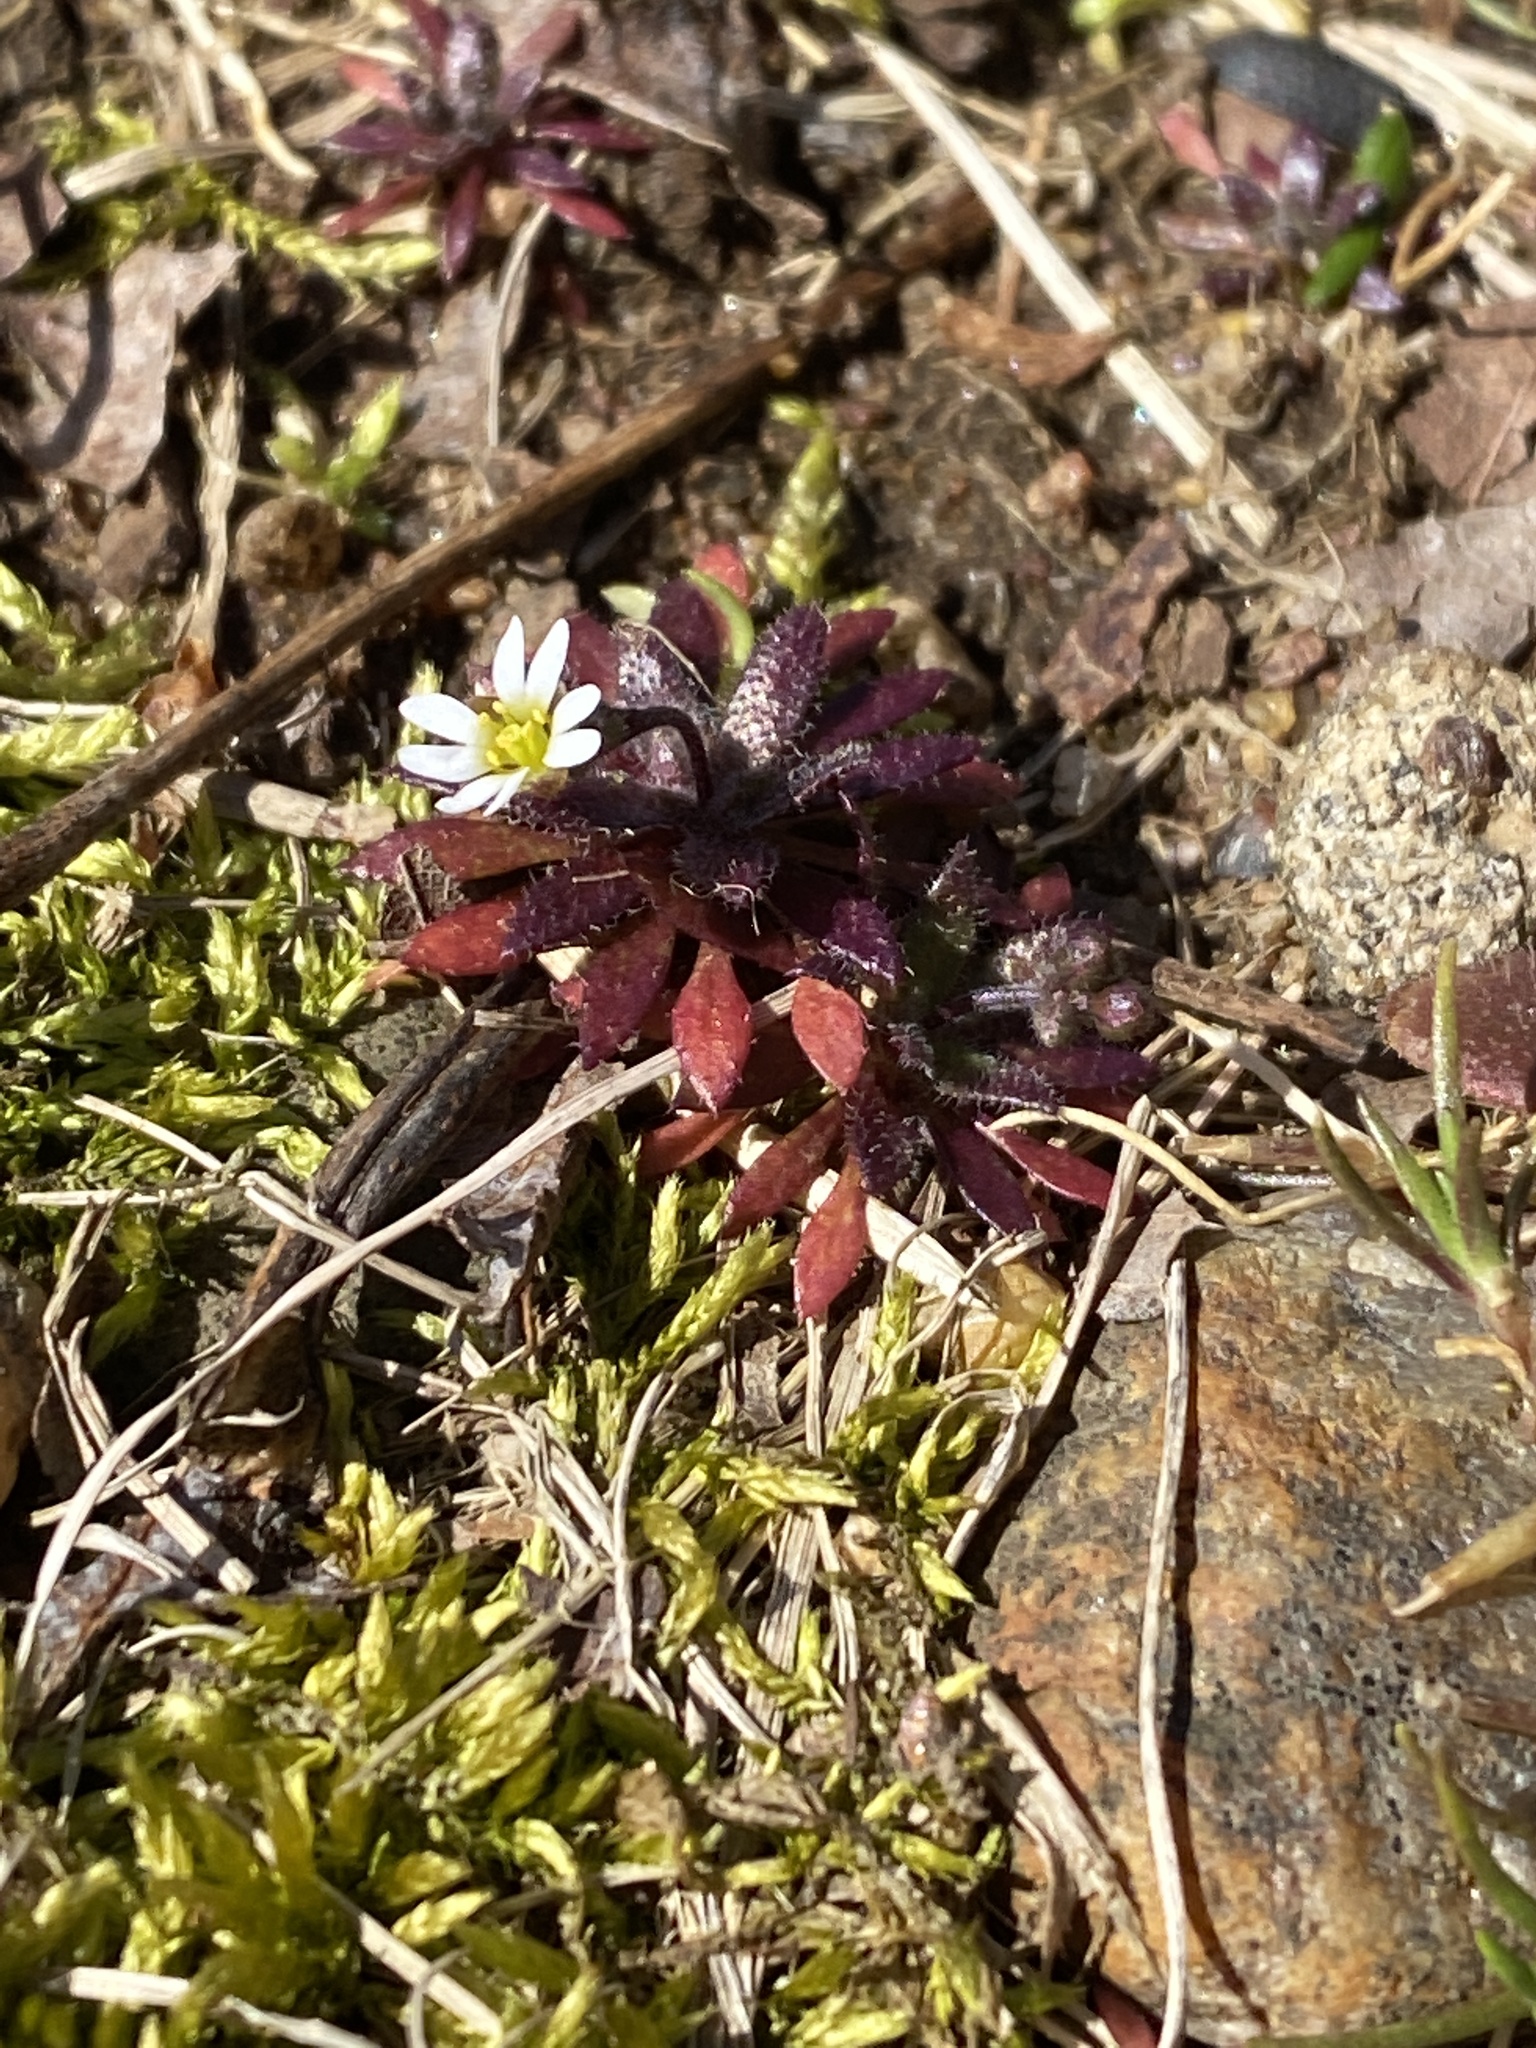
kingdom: Plantae
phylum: Tracheophyta
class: Magnoliopsida
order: Brassicales
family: Brassicaceae
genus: Draba
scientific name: Draba verna
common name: Spring draba
